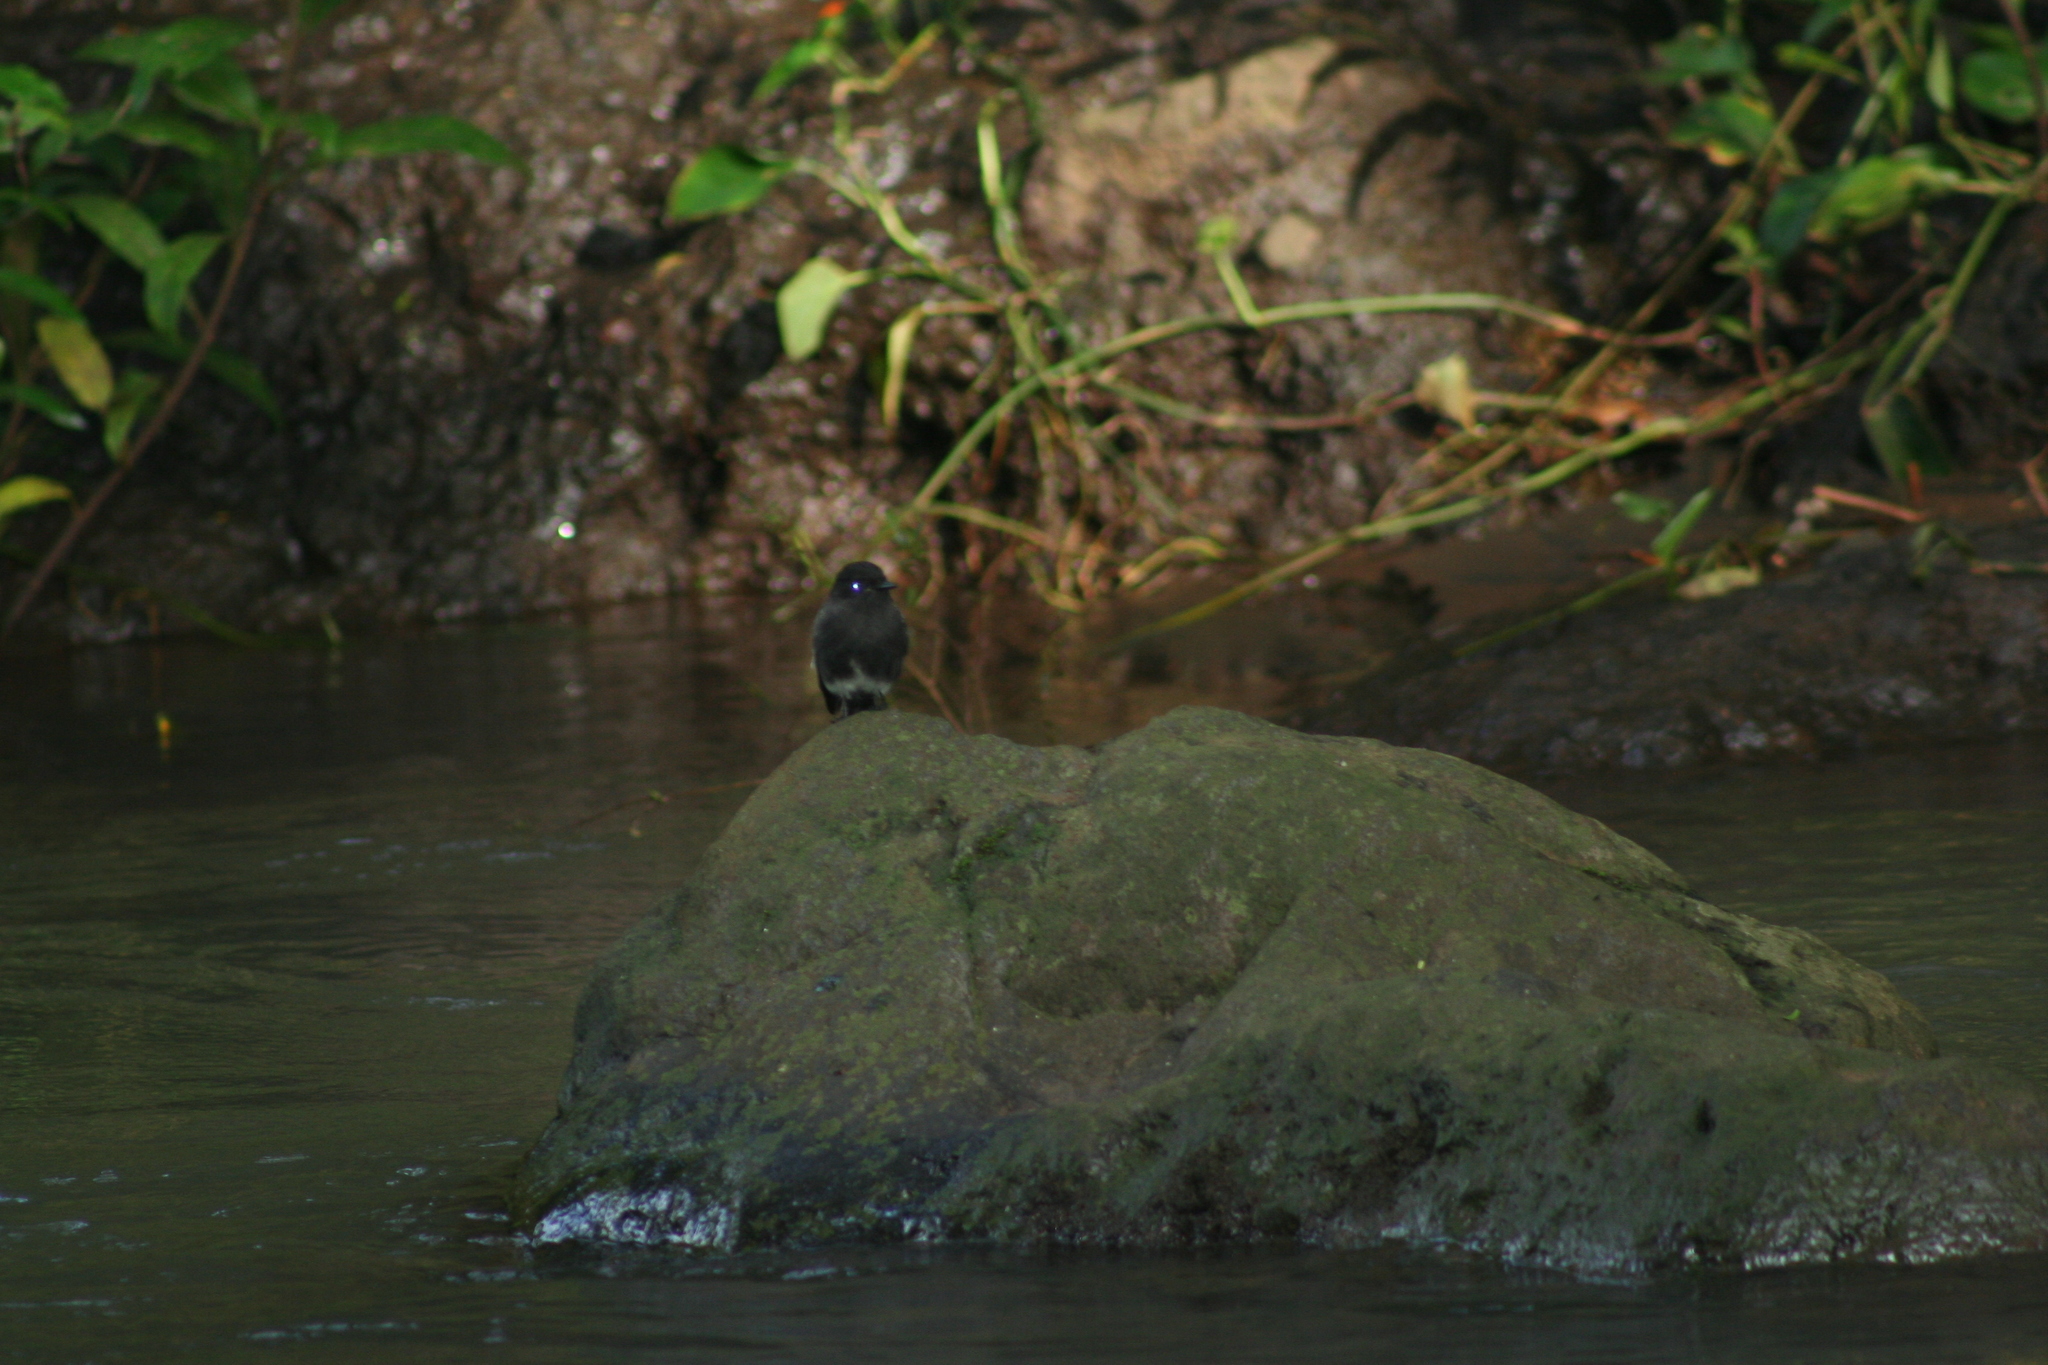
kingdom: Animalia
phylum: Chordata
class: Aves
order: Passeriformes
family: Tyrannidae
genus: Sayornis
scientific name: Sayornis nigricans
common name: Black phoebe
